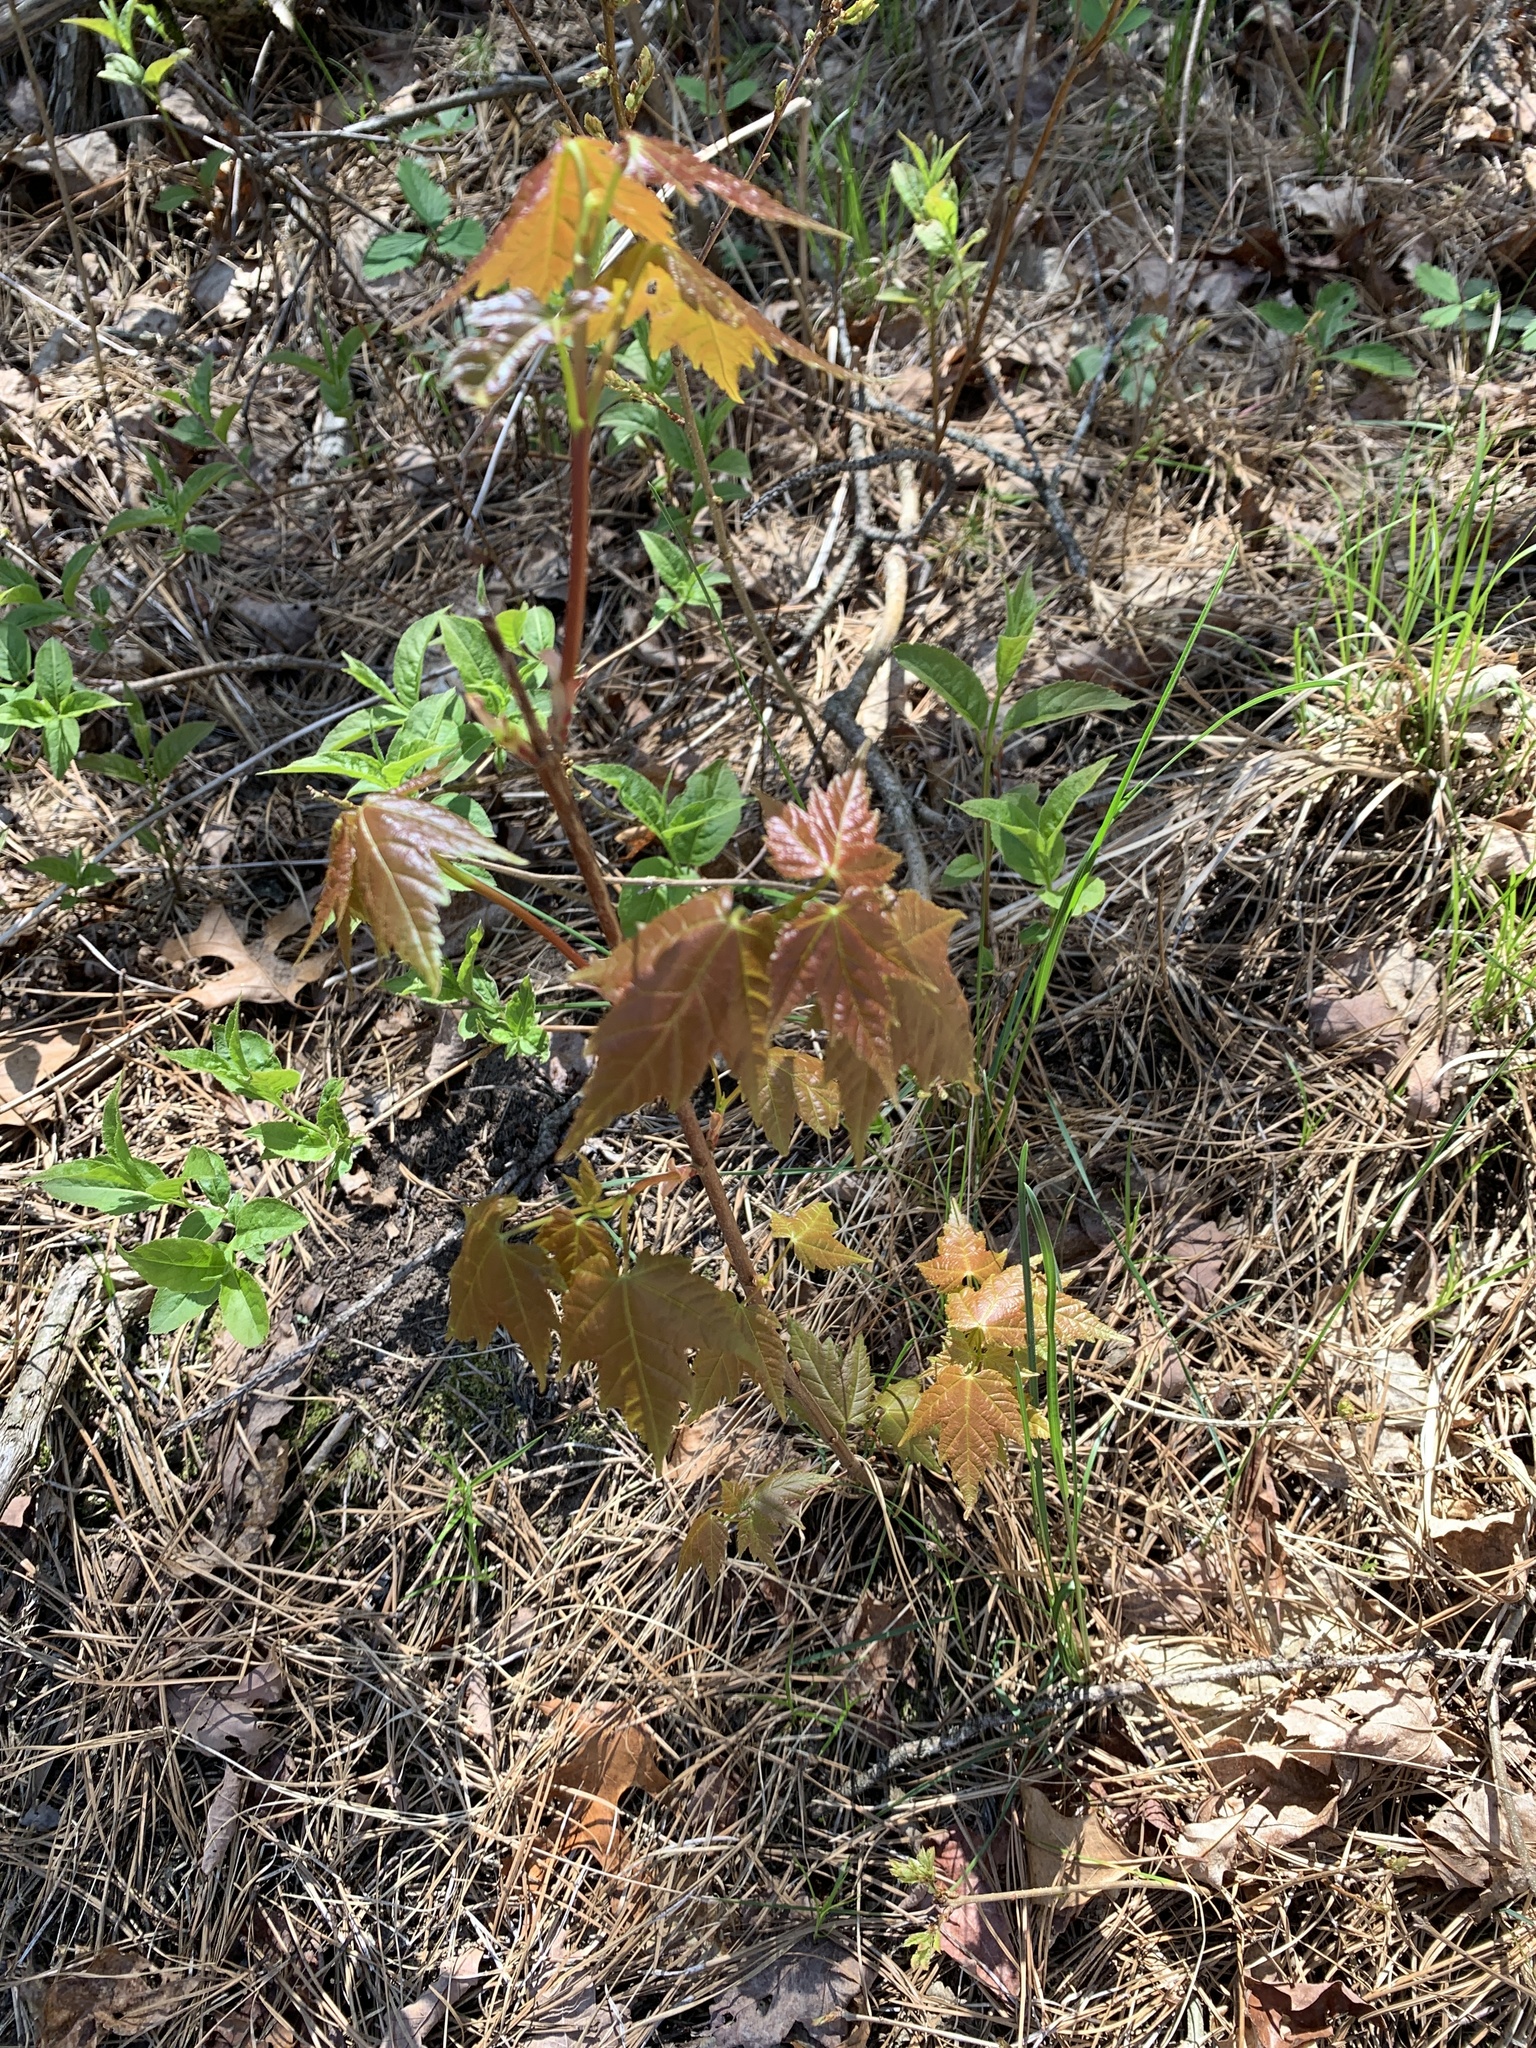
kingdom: Plantae
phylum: Tracheophyta
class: Magnoliopsida
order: Sapindales
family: Sapindaceae
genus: Acer
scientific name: Acer rubrum
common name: Red maple
